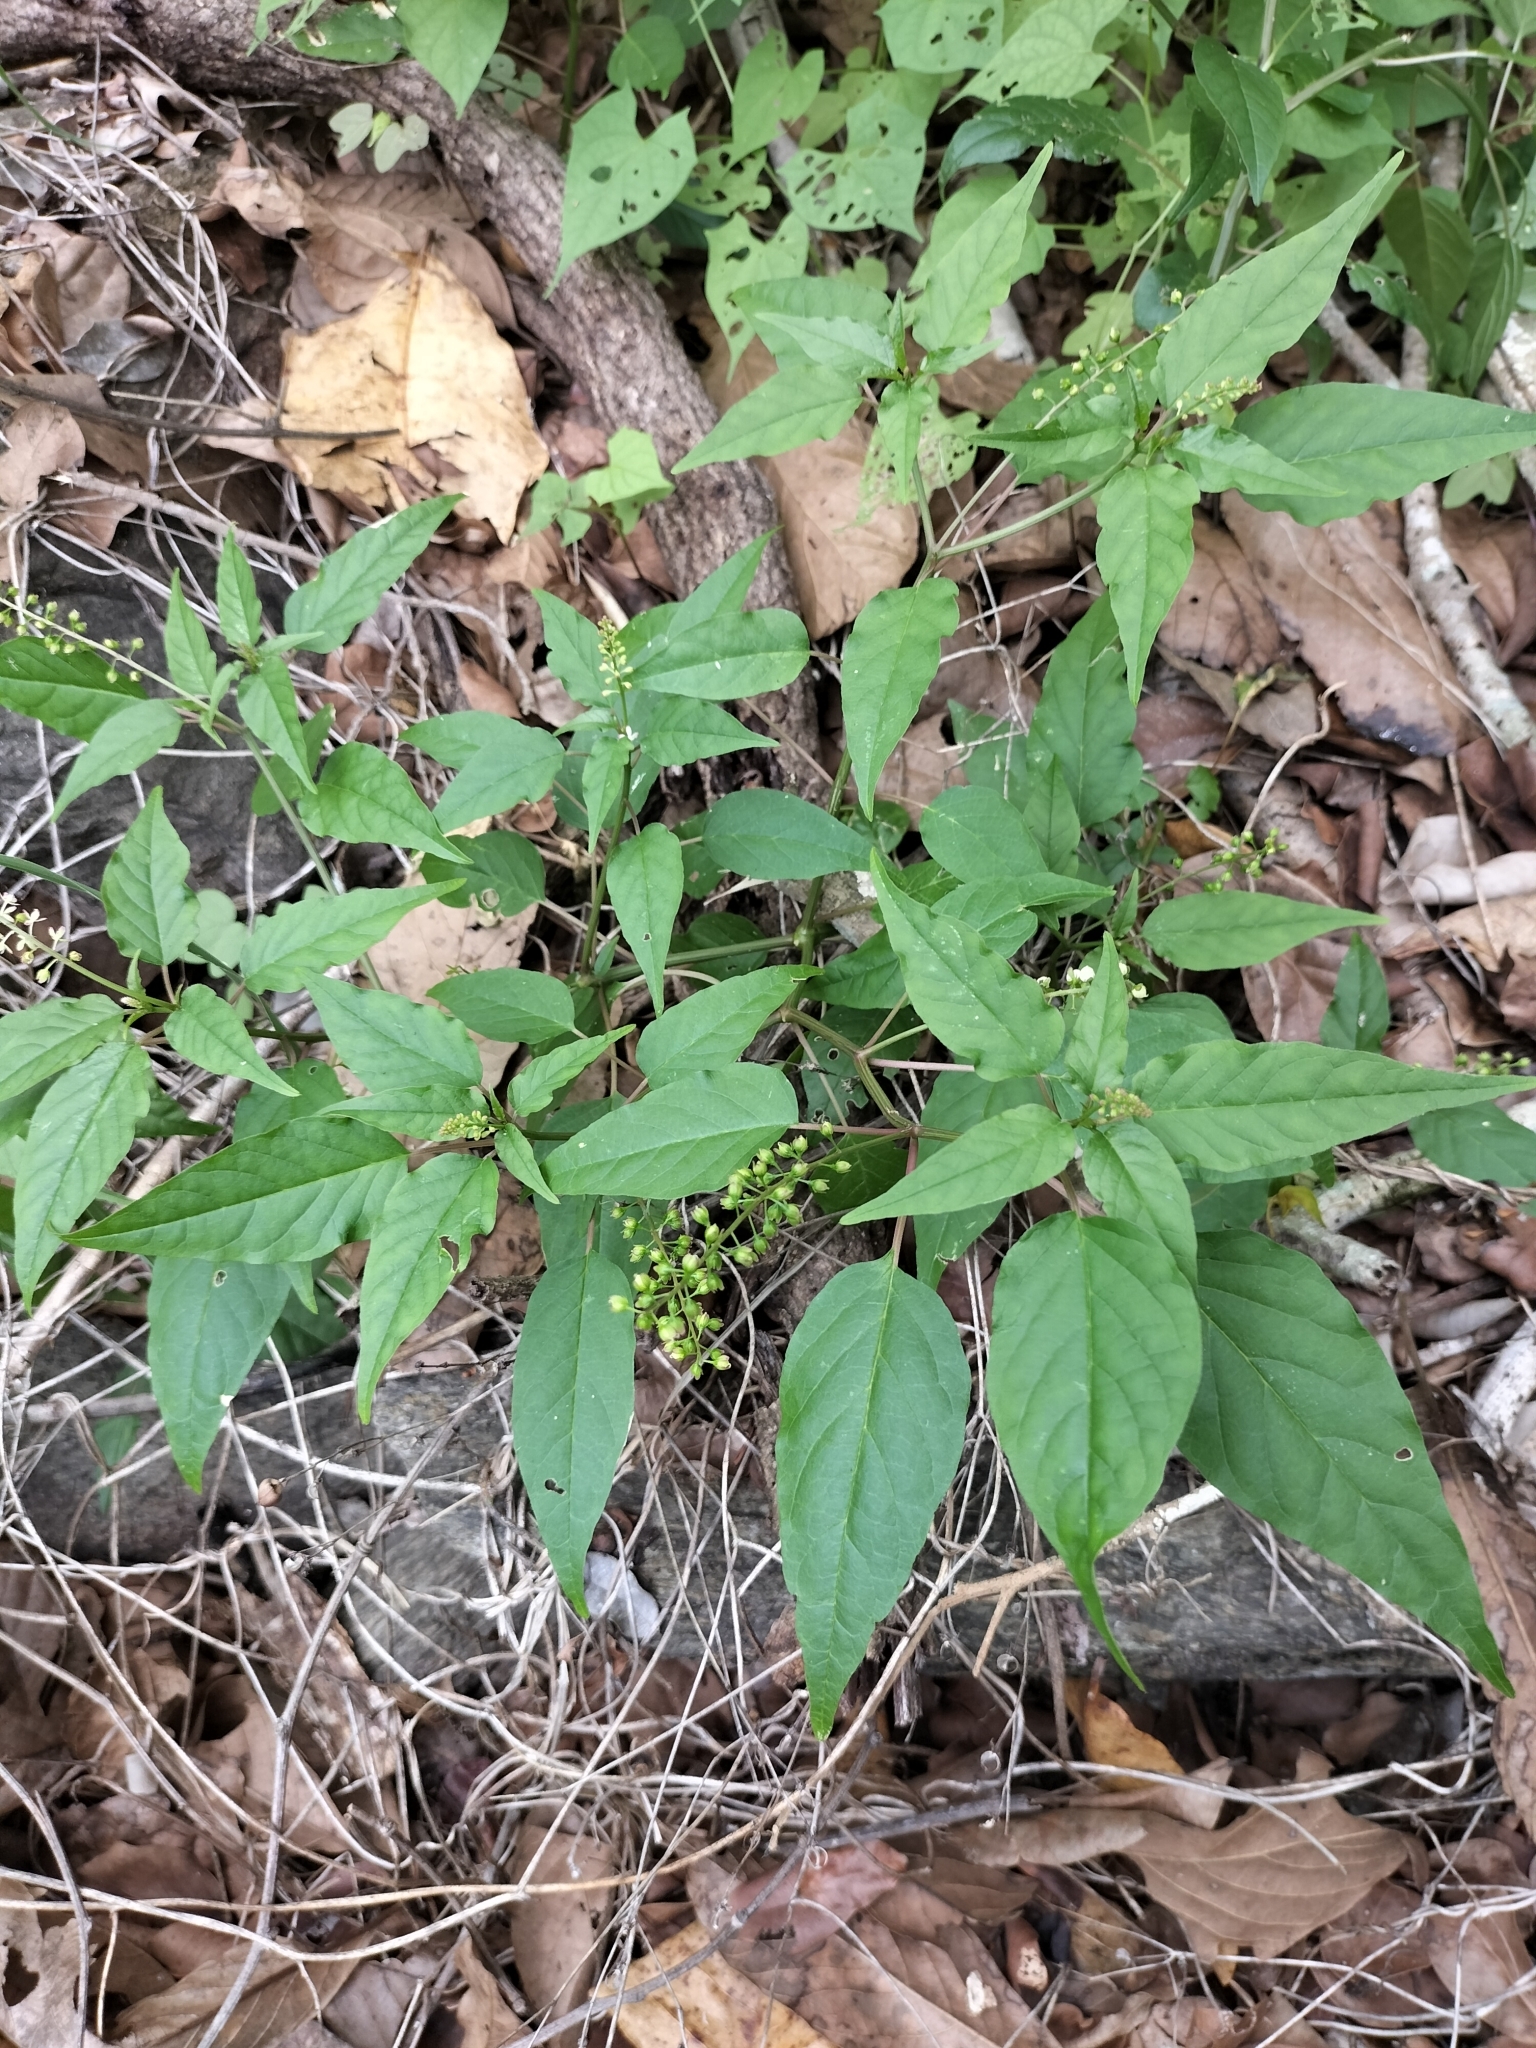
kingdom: Plantae
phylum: Tracheophyta
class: Magnoliopsida
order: Caryophyllales
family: Phytolaccaceae
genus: Rivina
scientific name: Rivina humilis
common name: Rougeplant
